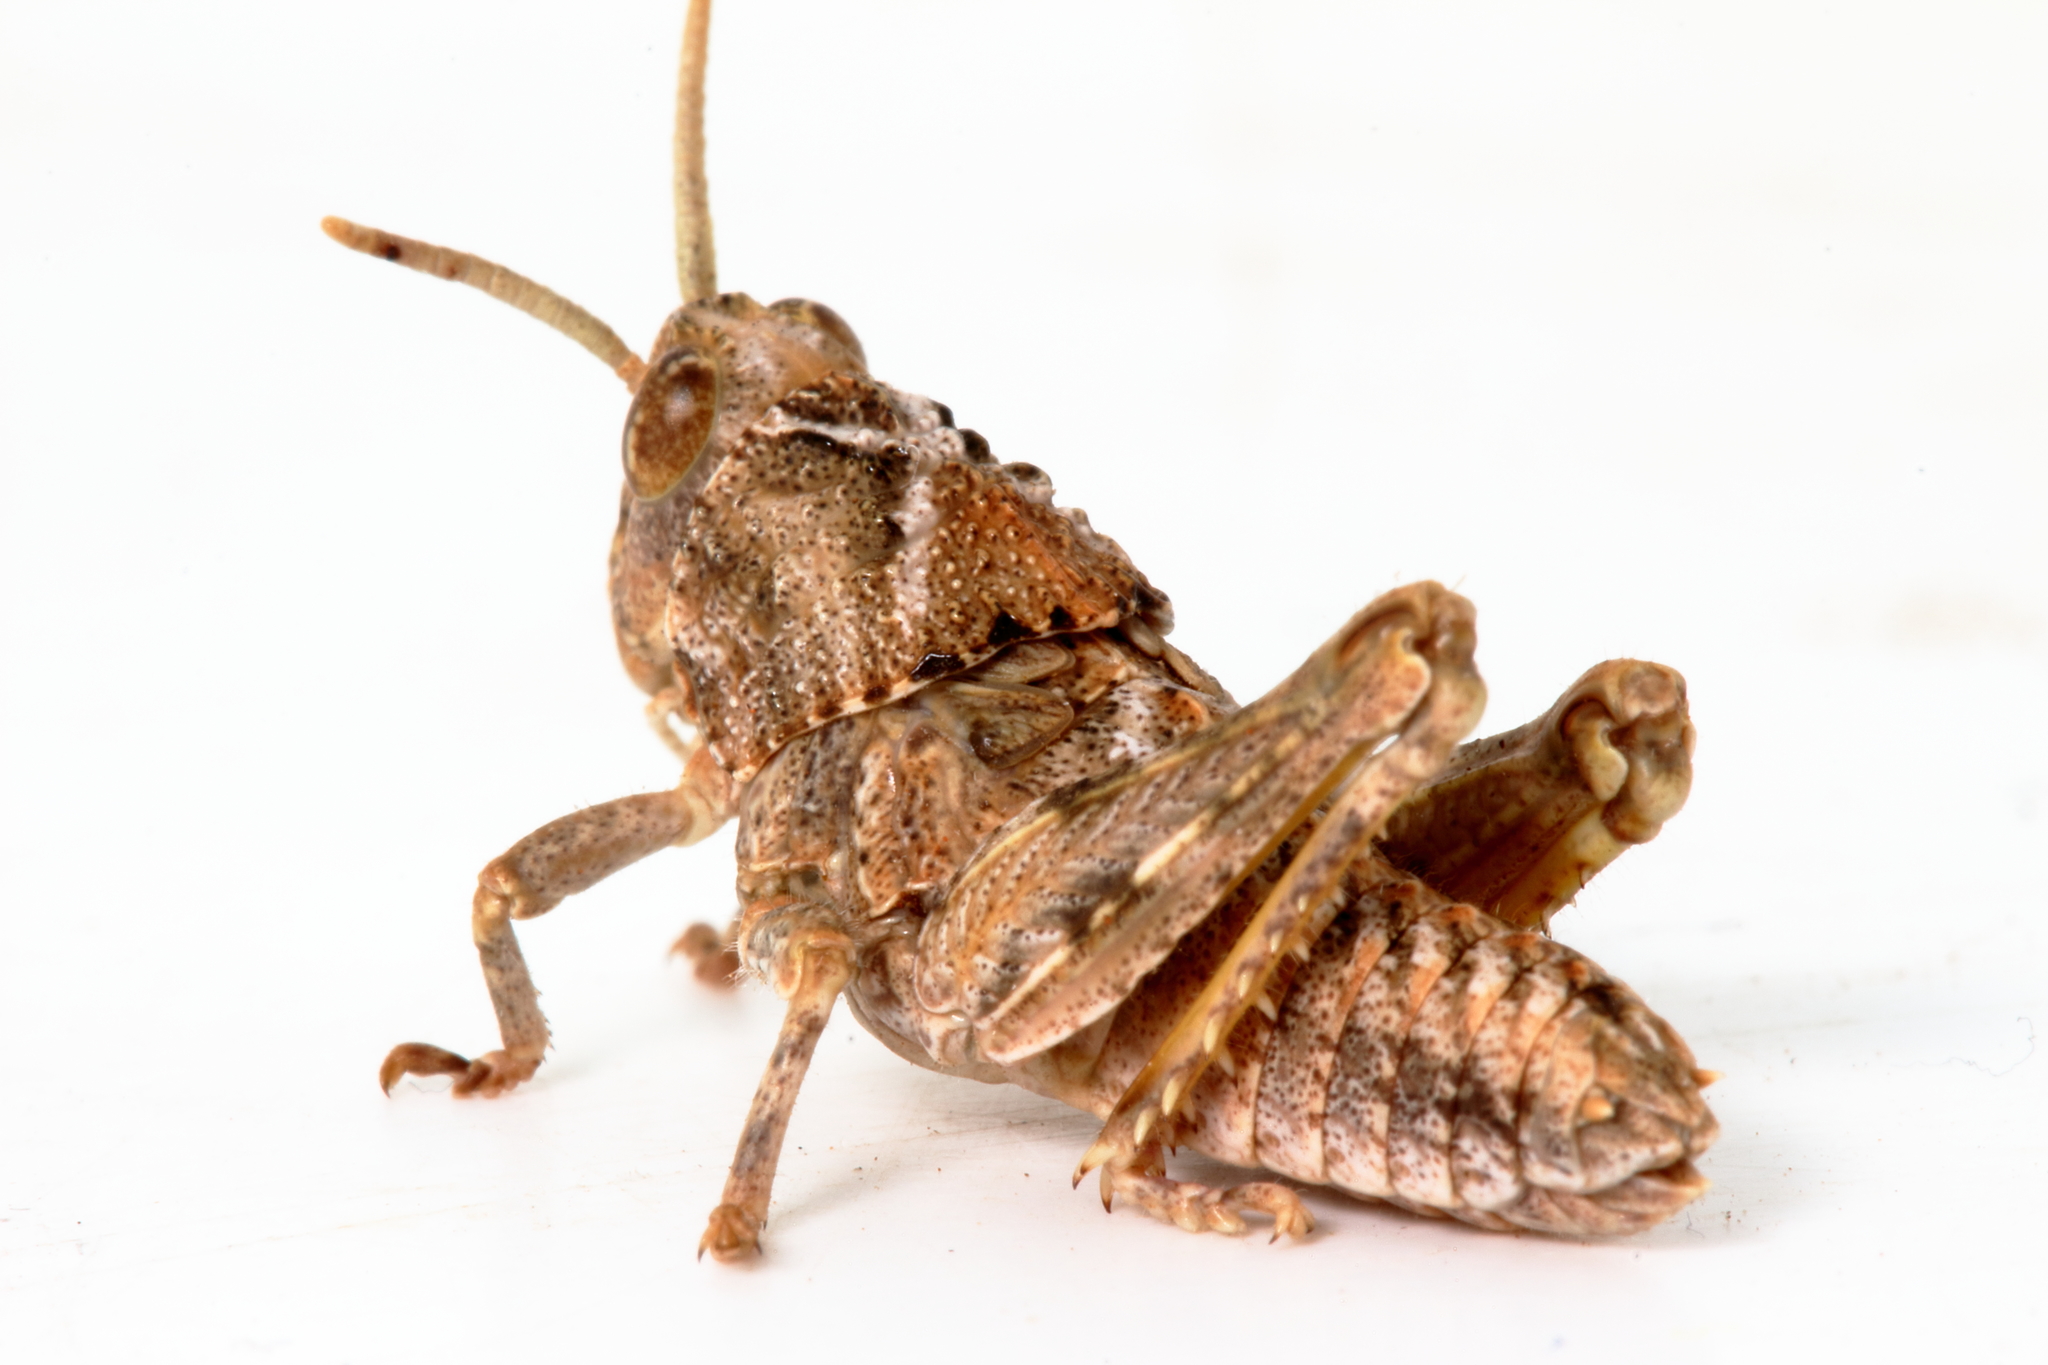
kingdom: Animalia
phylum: Arthropoda
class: Insecta
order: Orthoptera
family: Acrididae
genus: Cratilopus
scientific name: Cratilopus
